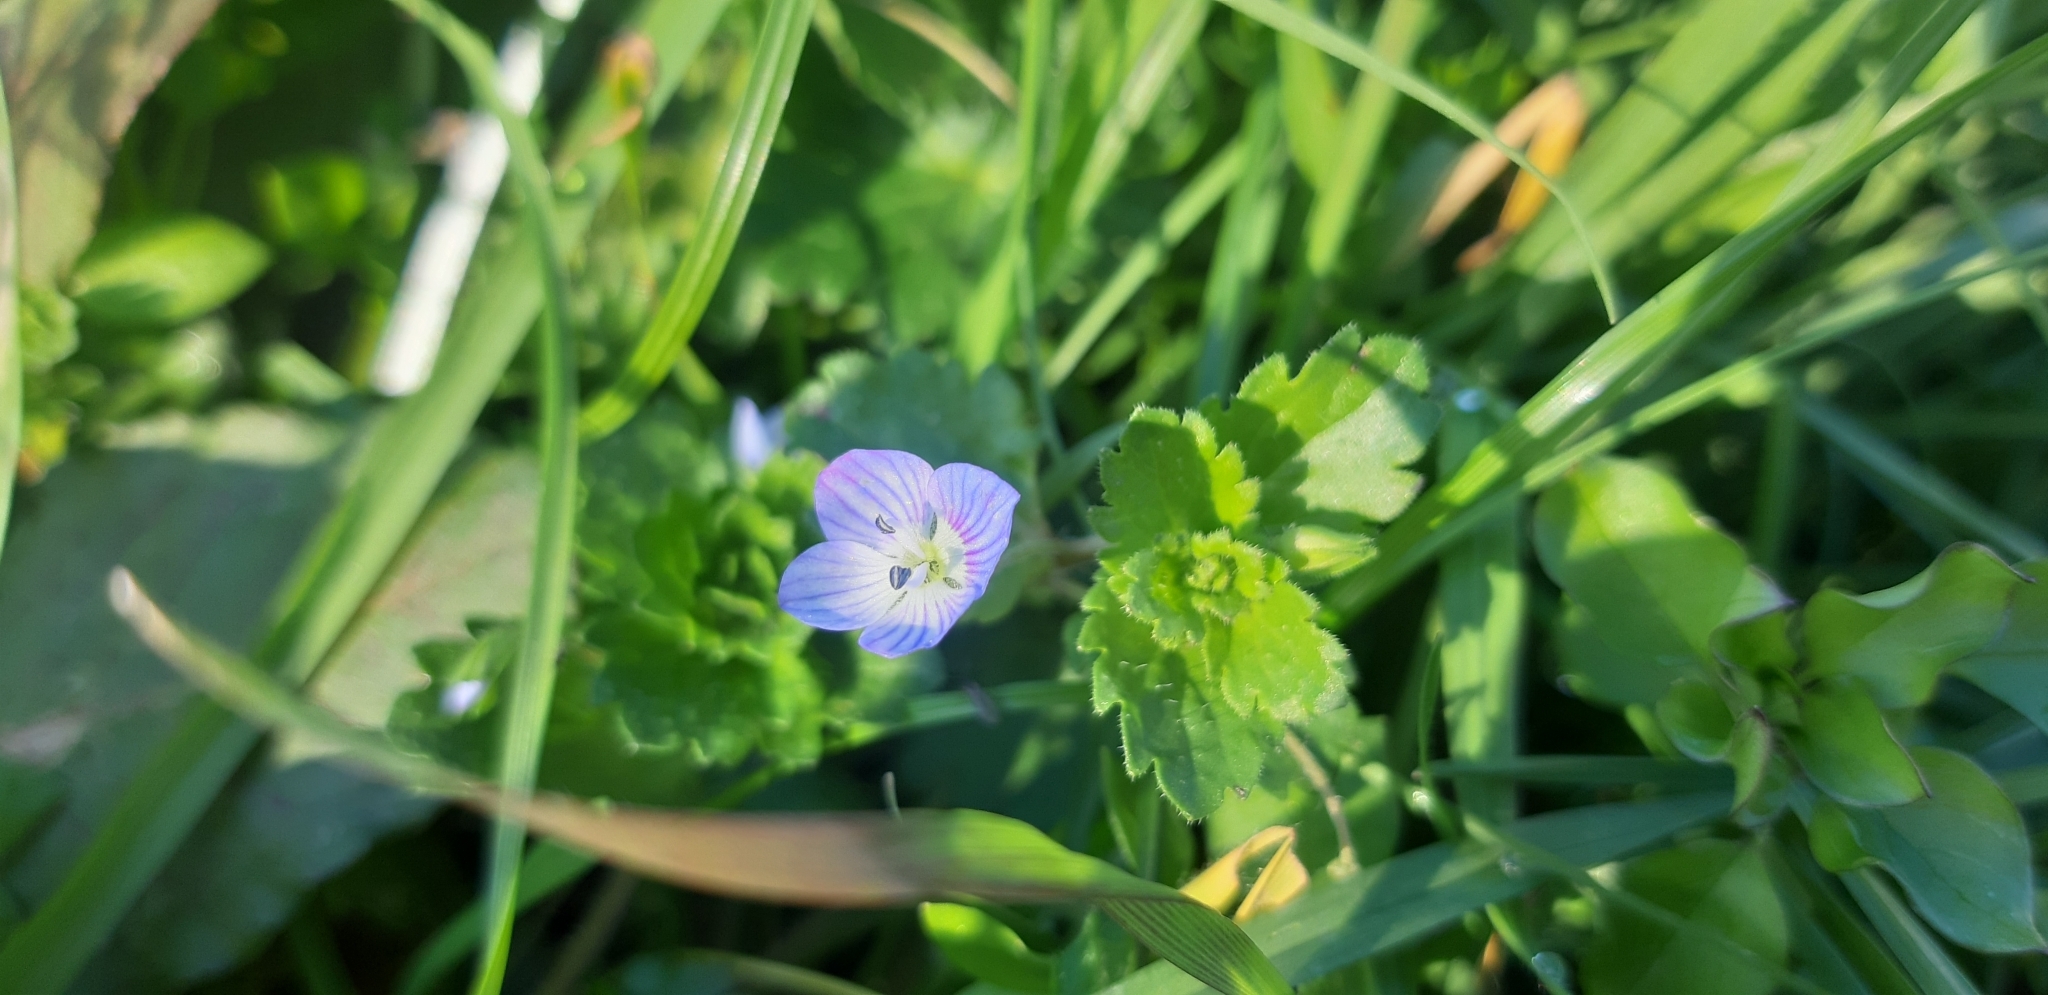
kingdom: Plantae
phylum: Tracheophyta
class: Magnoliopsida
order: Lamiales
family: Plantaginaceae
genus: Veronica
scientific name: Veronica persica
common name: Common field-speedwell
